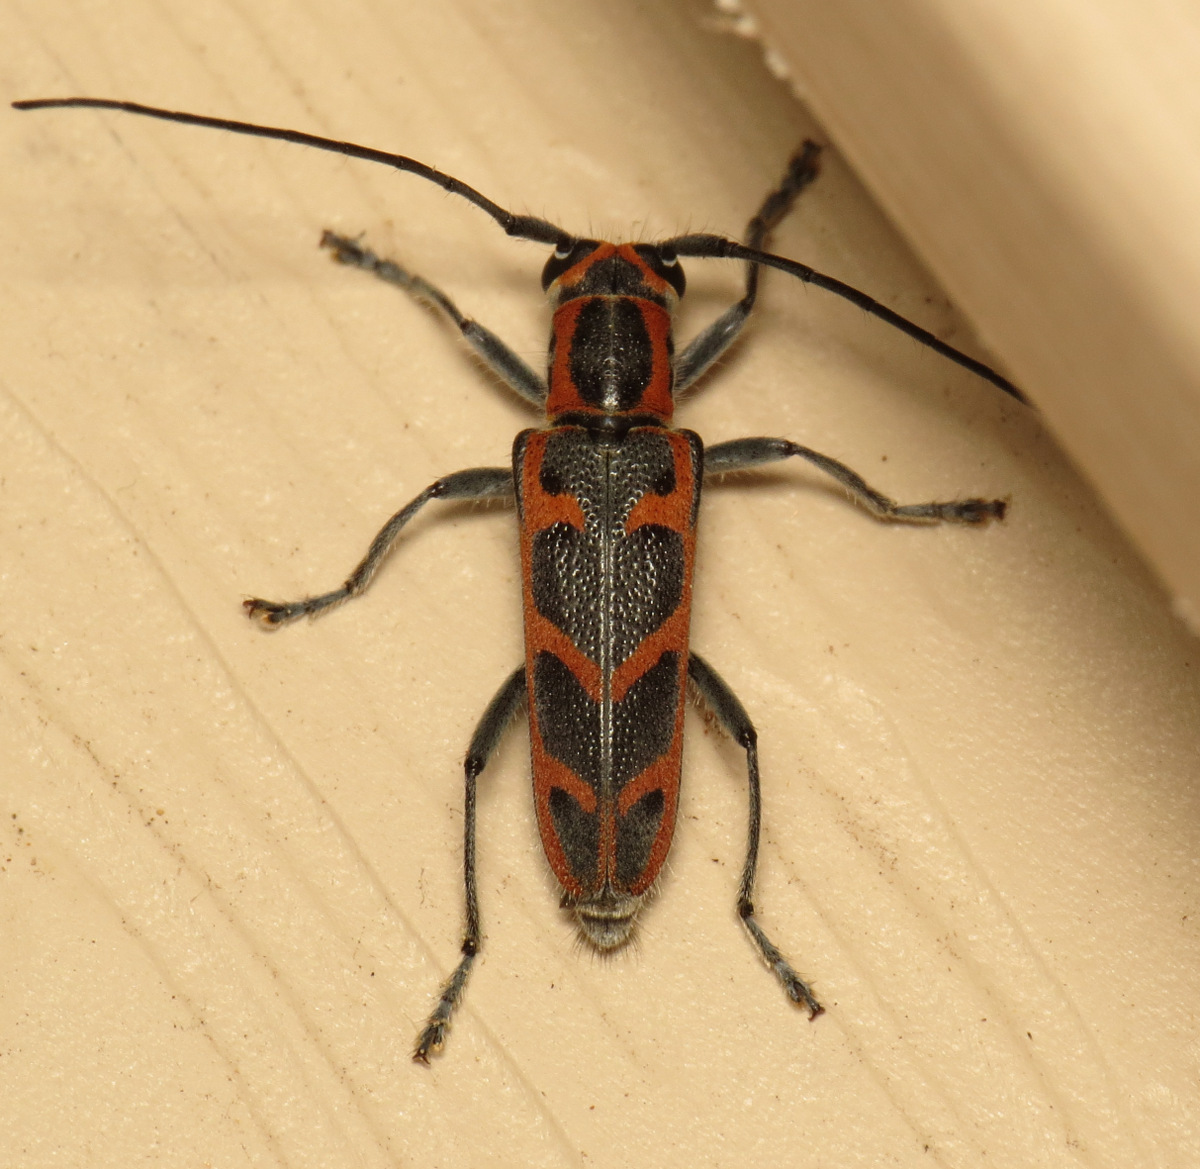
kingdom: Animalia
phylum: Arthropoda
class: Insecta
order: Coleoptera
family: Cerambycidae
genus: Saperda
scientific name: Saperda tridentata
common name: Elm borer
